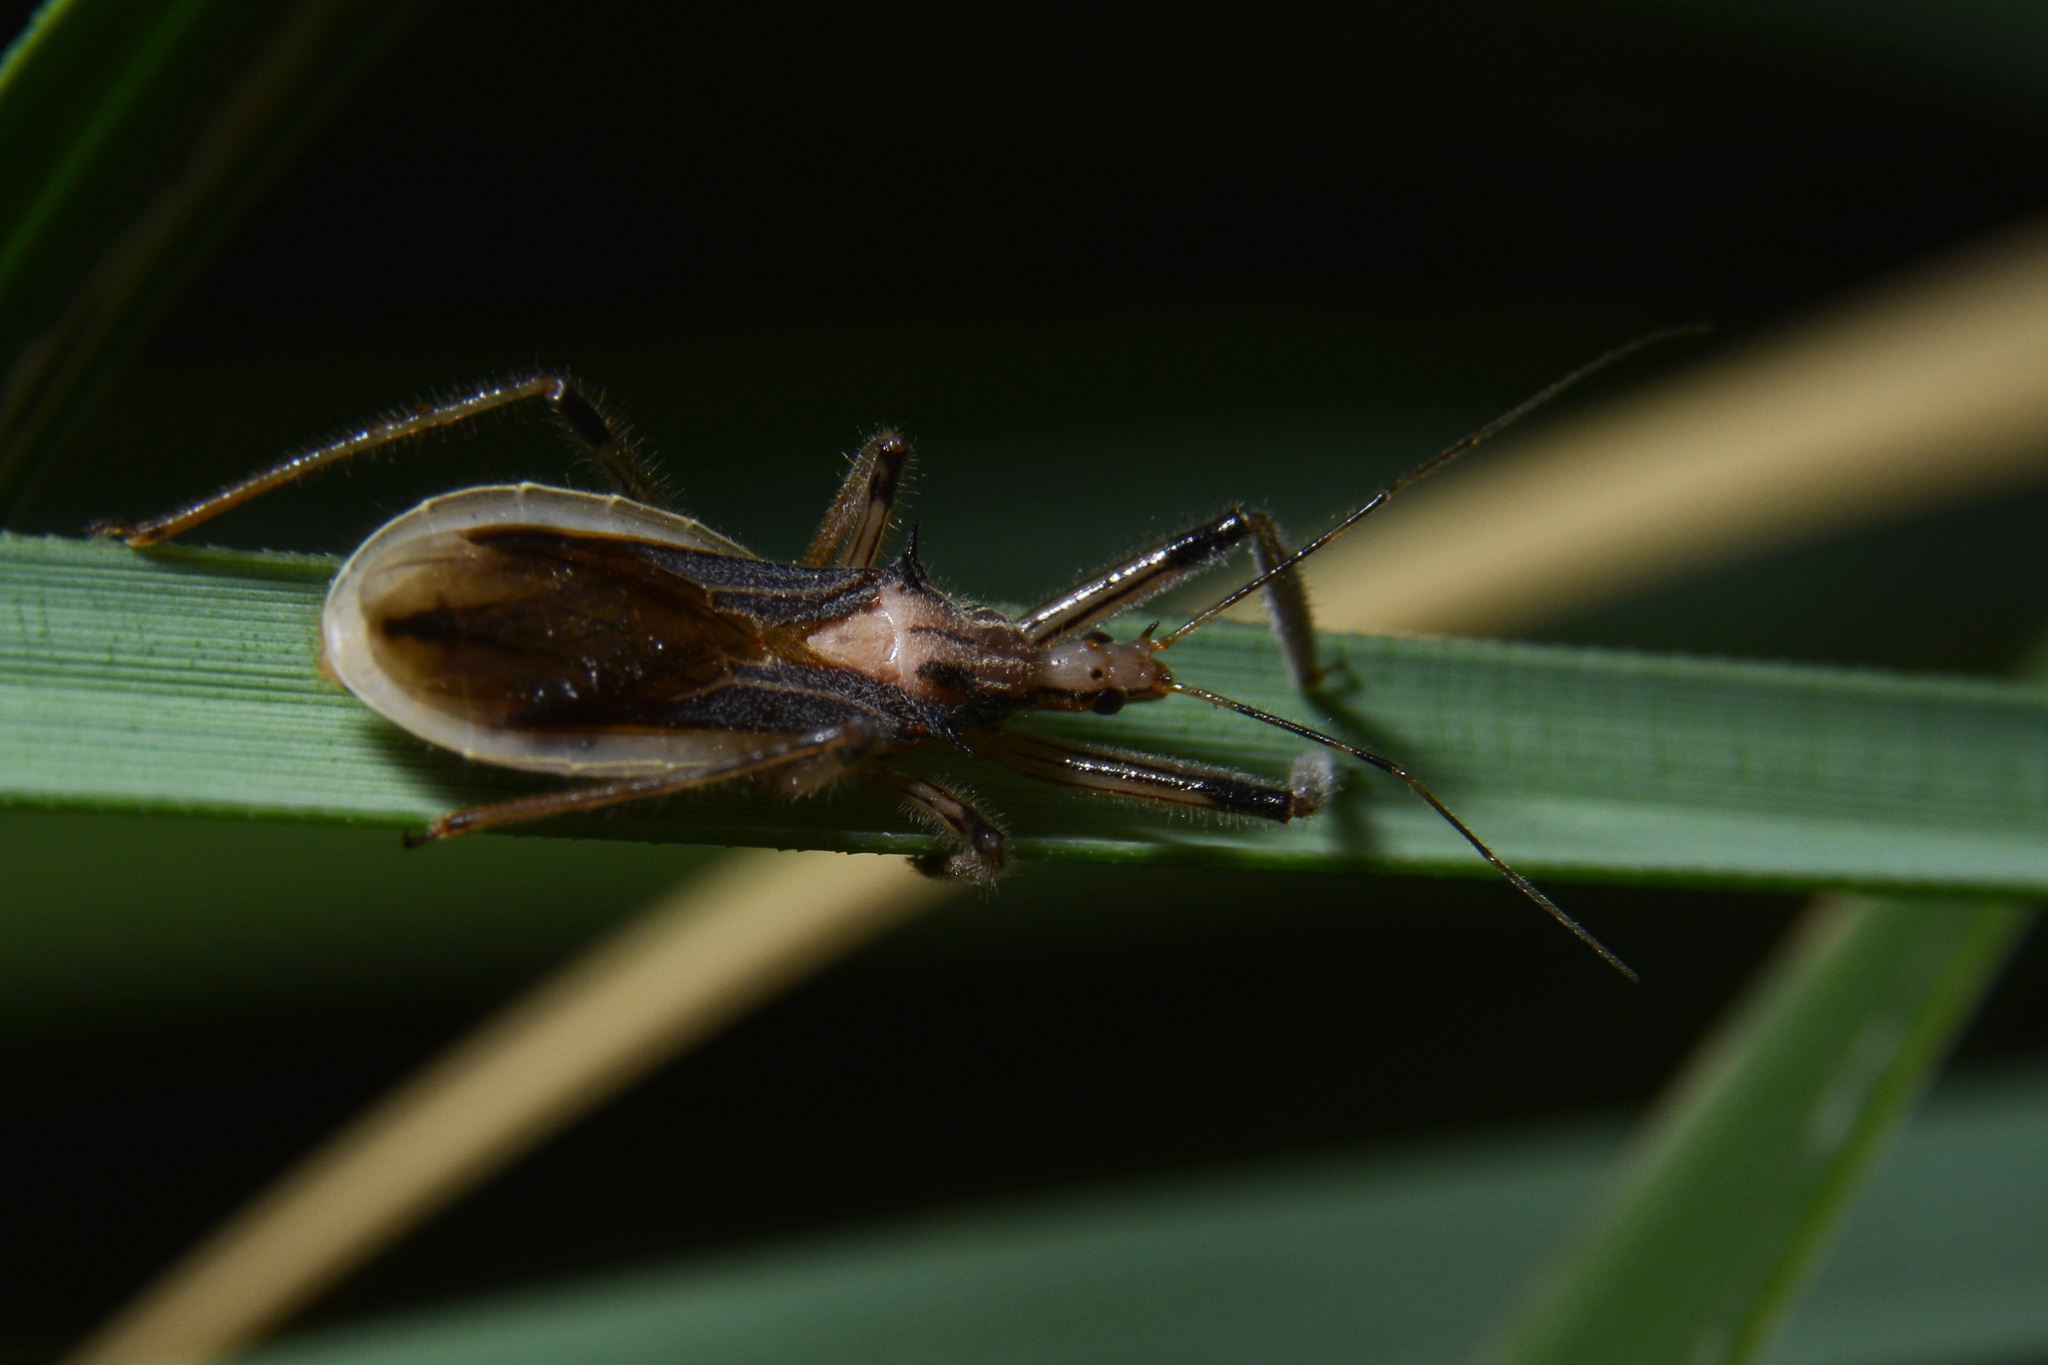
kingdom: Animalia
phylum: Arthropoda
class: Insecta
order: Hemiptera
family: Reduviidae
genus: Repipta
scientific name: Repipta argentinensis
